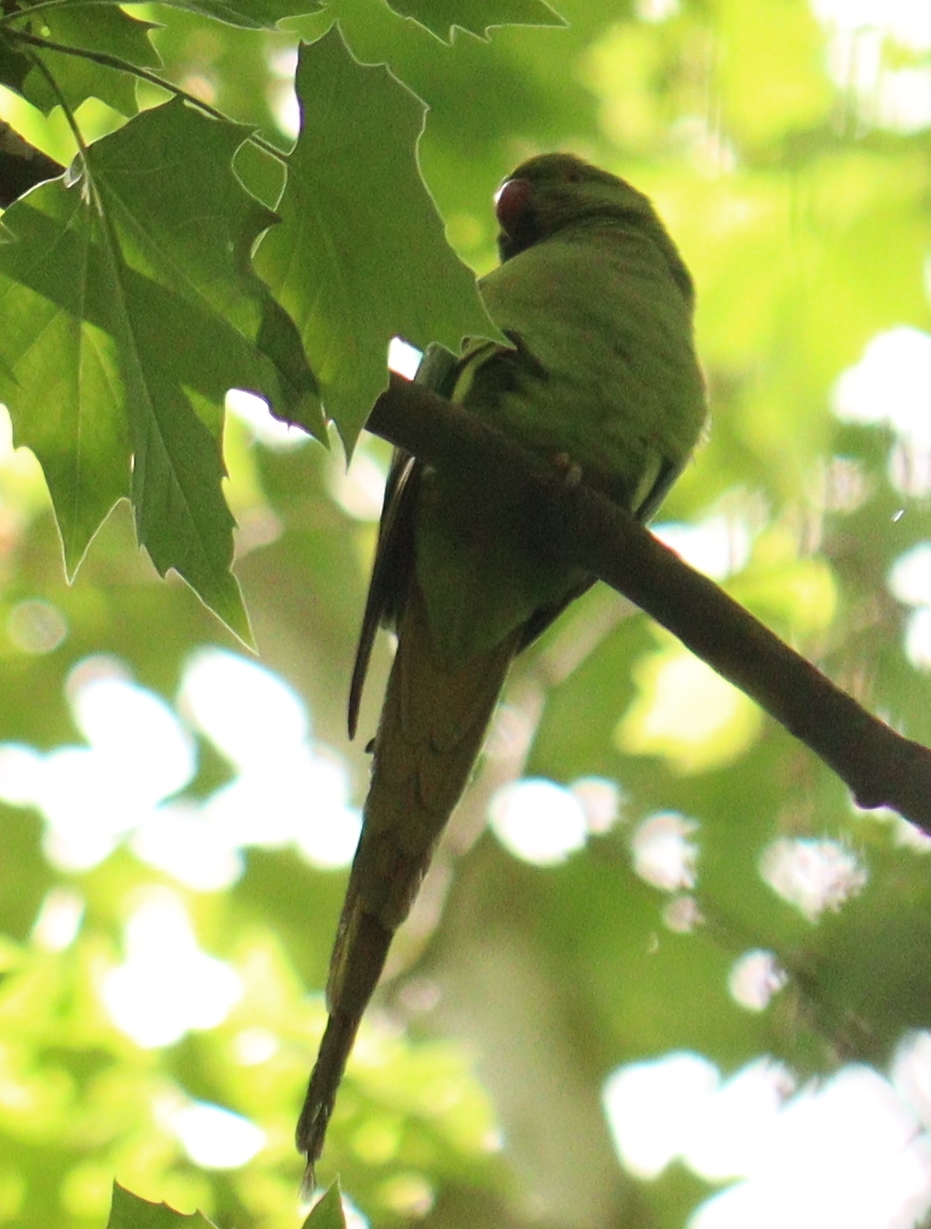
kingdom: Animalia
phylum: Chordata
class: Aves
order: Psittaciformes
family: Psittacidae
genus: Psittacula
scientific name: Psittacula krameri
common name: Rose-ringed parakeet
